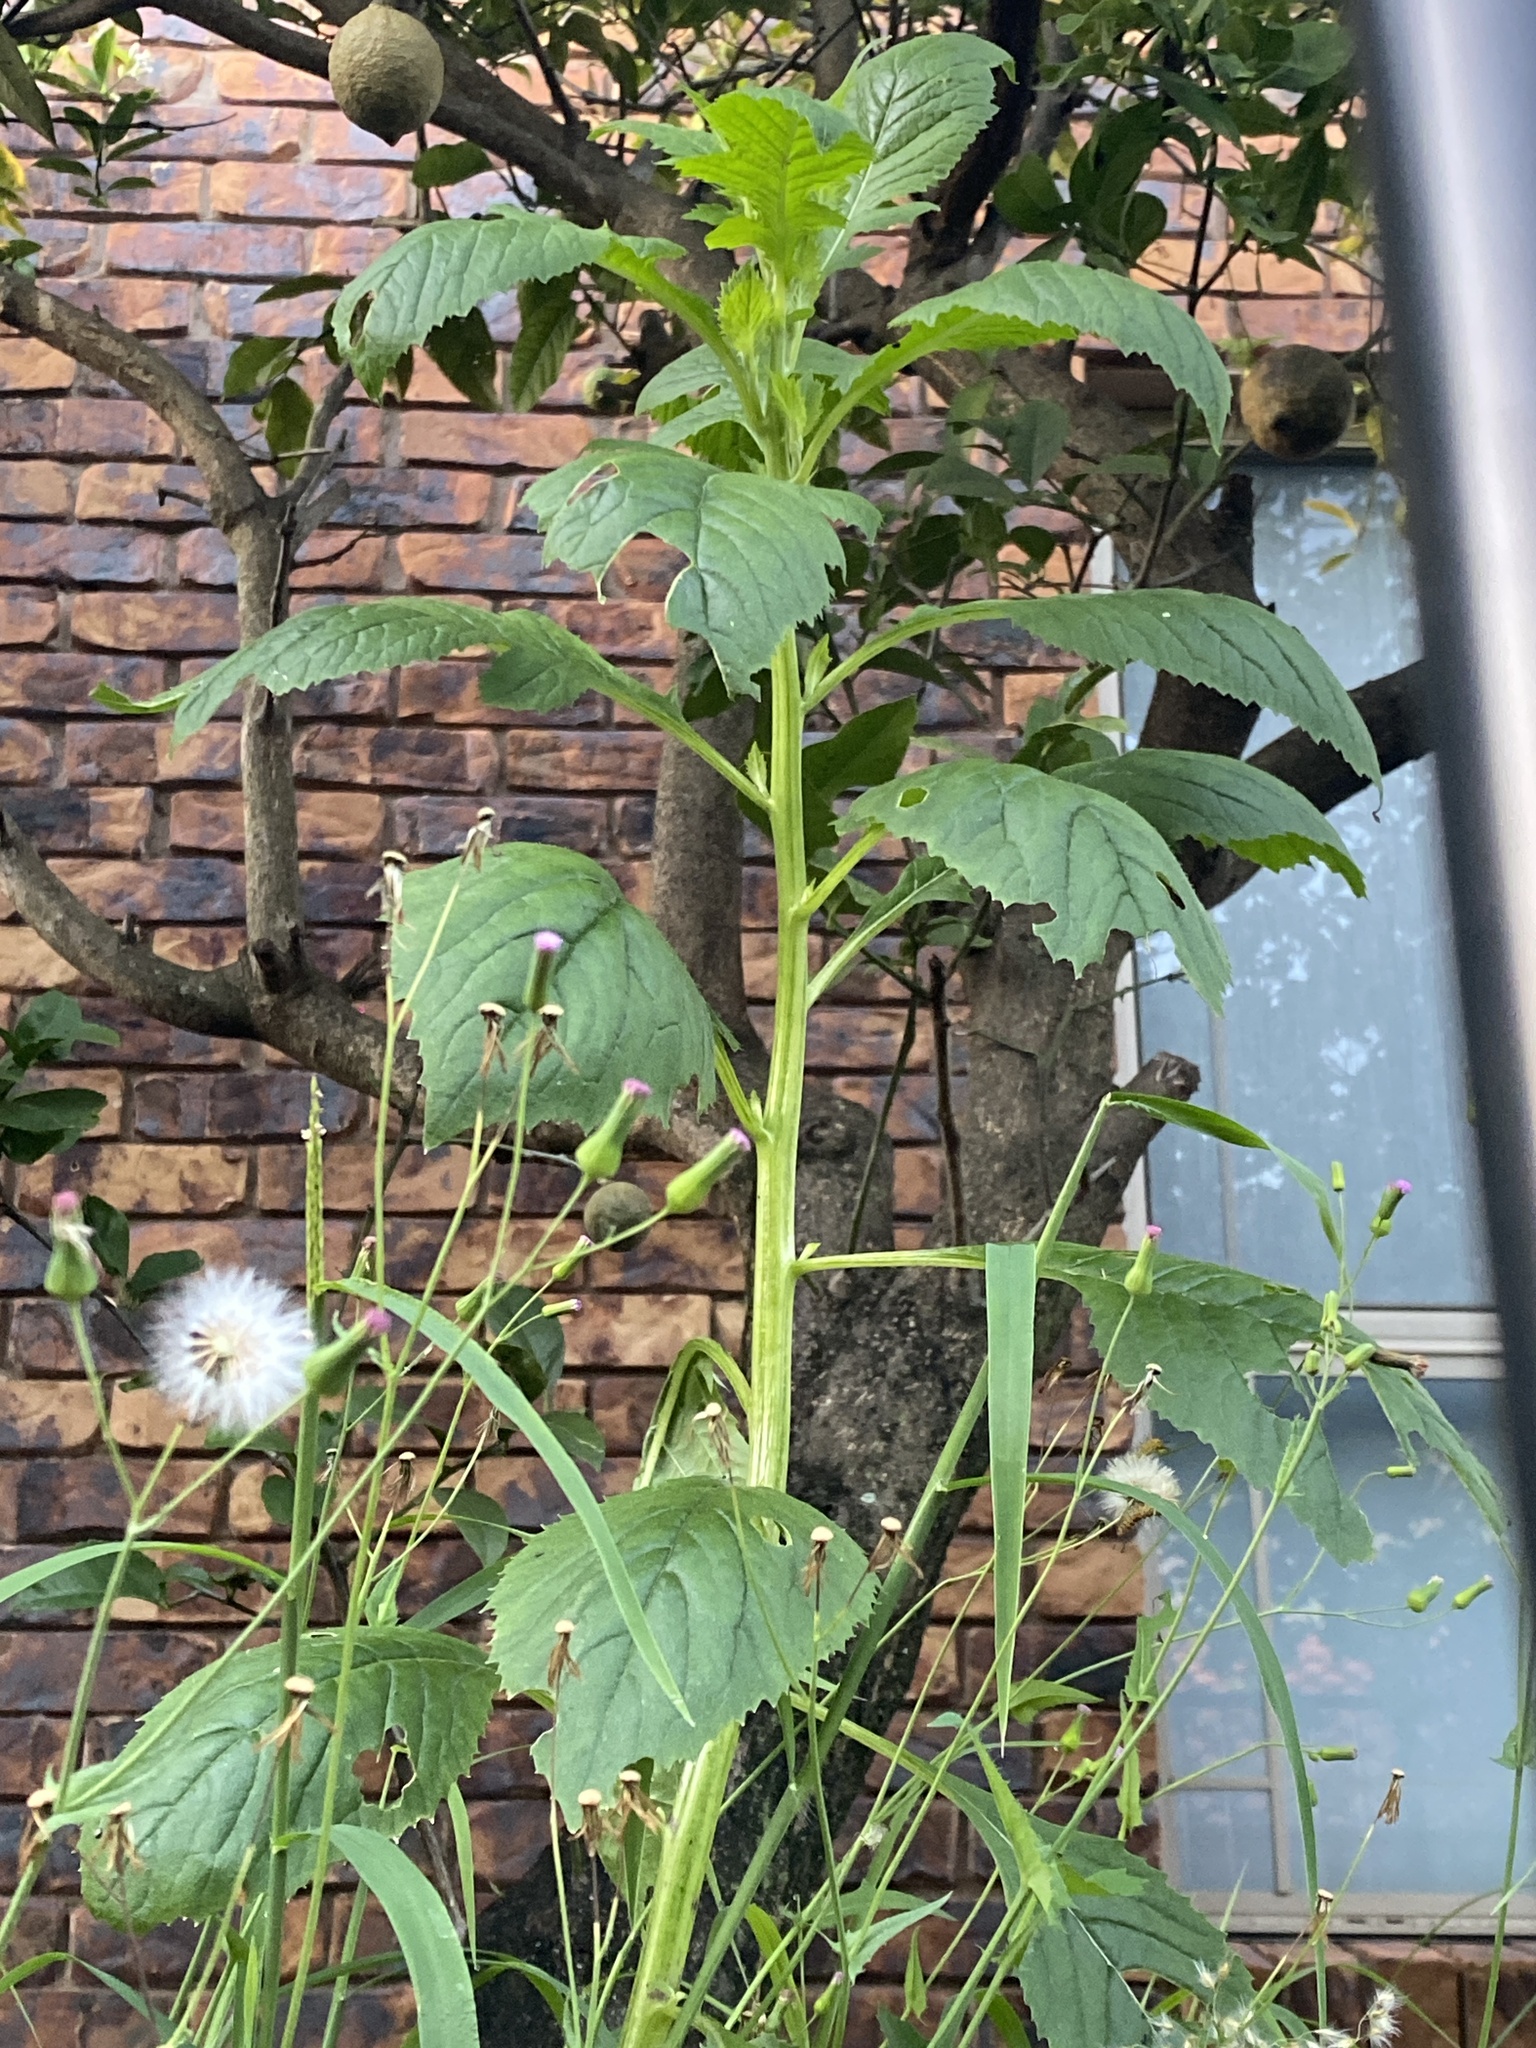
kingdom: Plantae
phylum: Tracheophyta
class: Magnoliopsida
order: Asterales
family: Asteraceae
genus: Crassocephalum
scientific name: Crassocephalum crepidioides
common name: Redflower ragleaf
